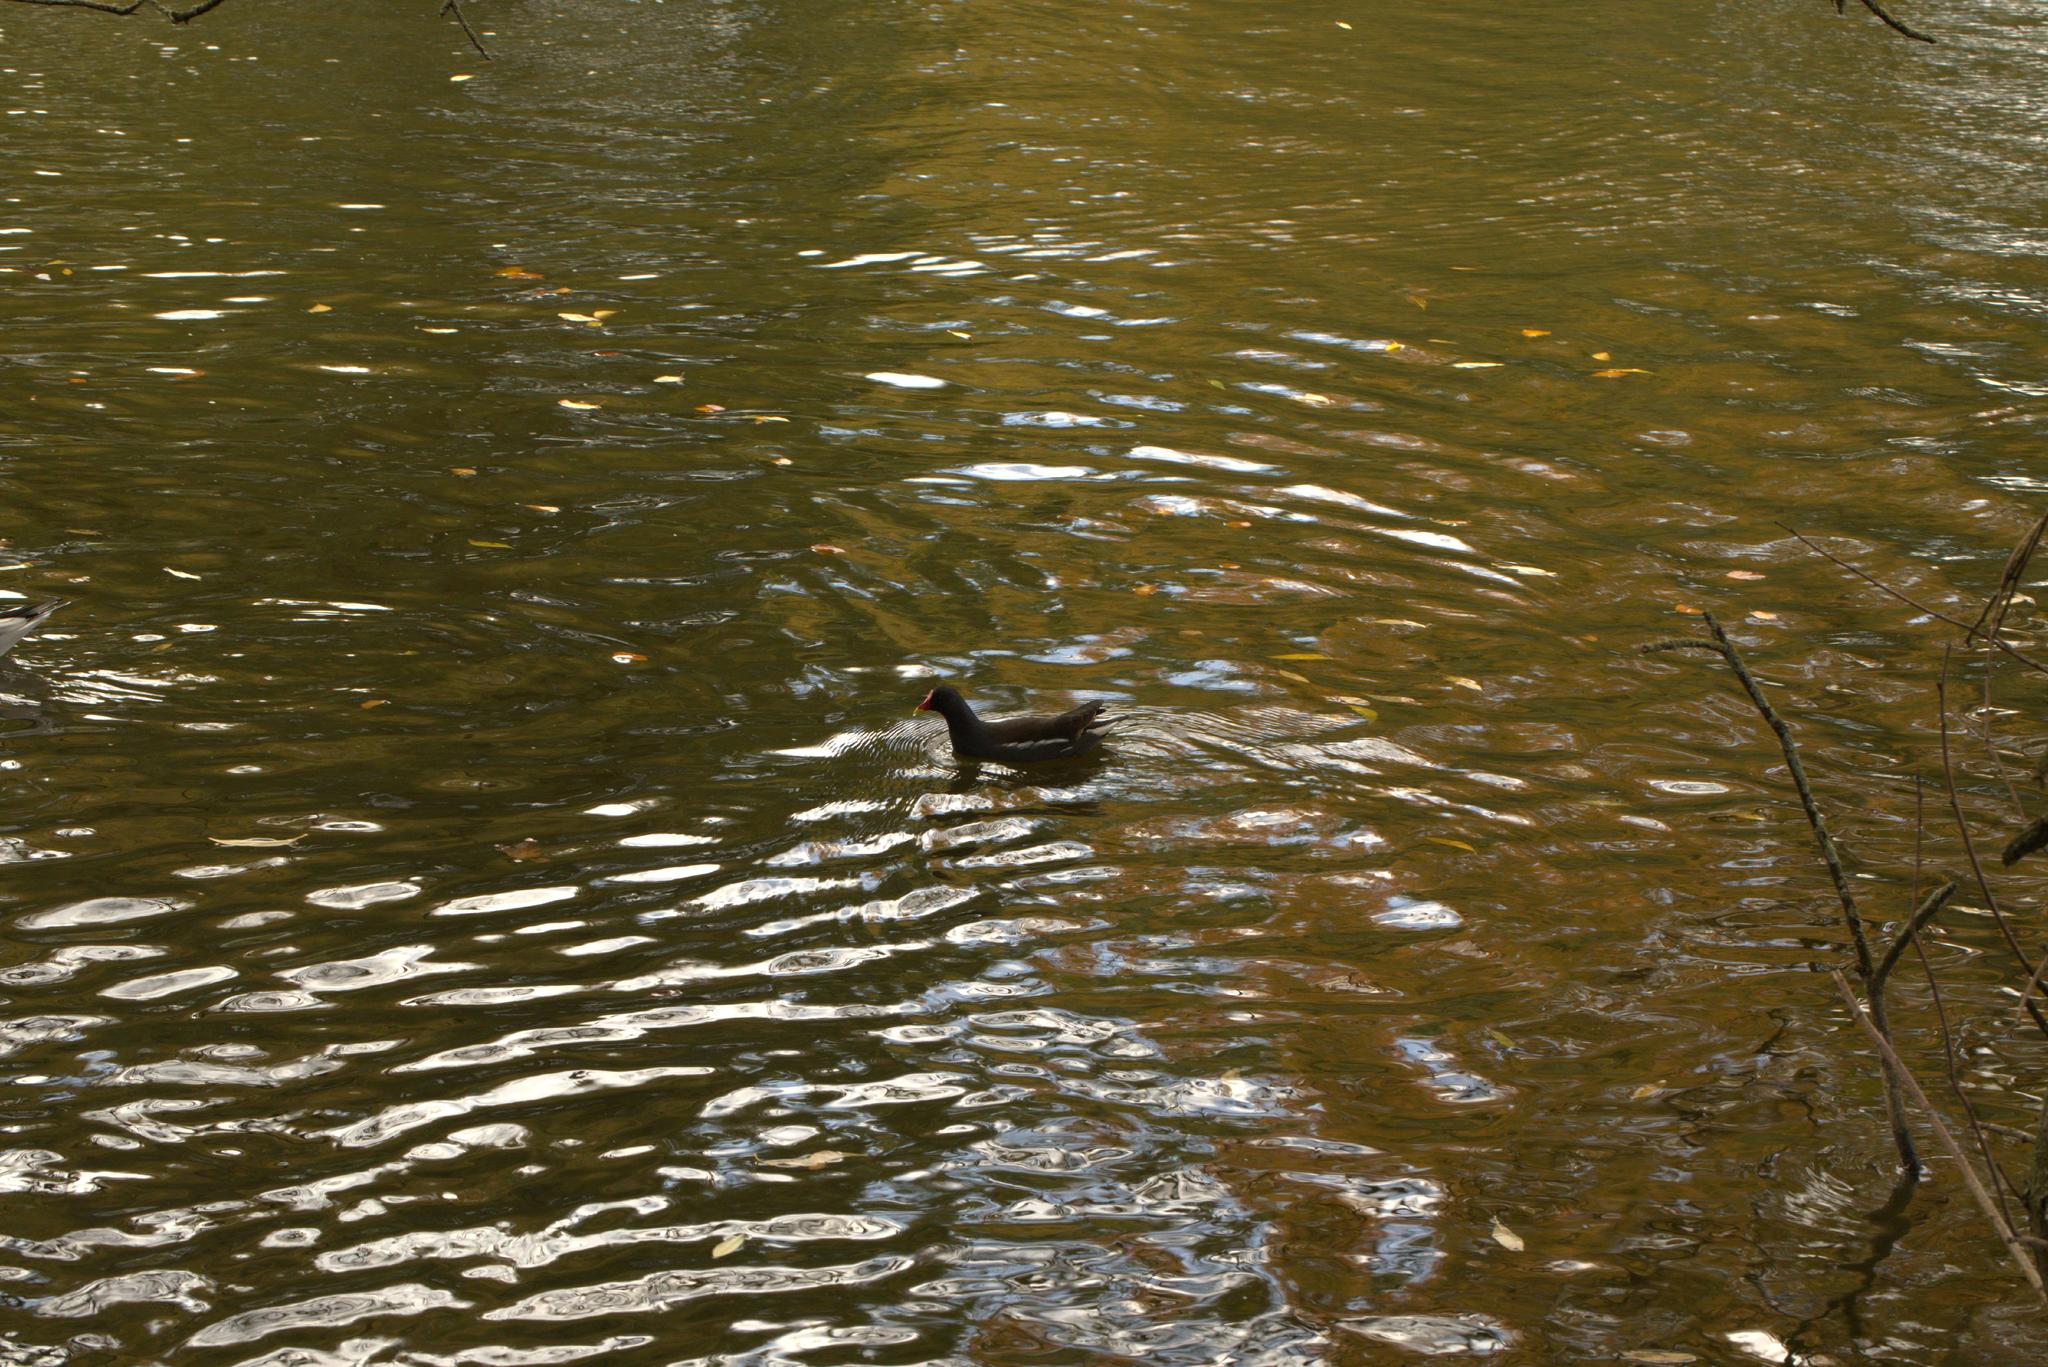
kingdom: Animalia
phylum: Chordata
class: Aves
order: Gruiformes
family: Rallidae
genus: Gallinula
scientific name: Gallinula chloropus
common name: Common moorhen
